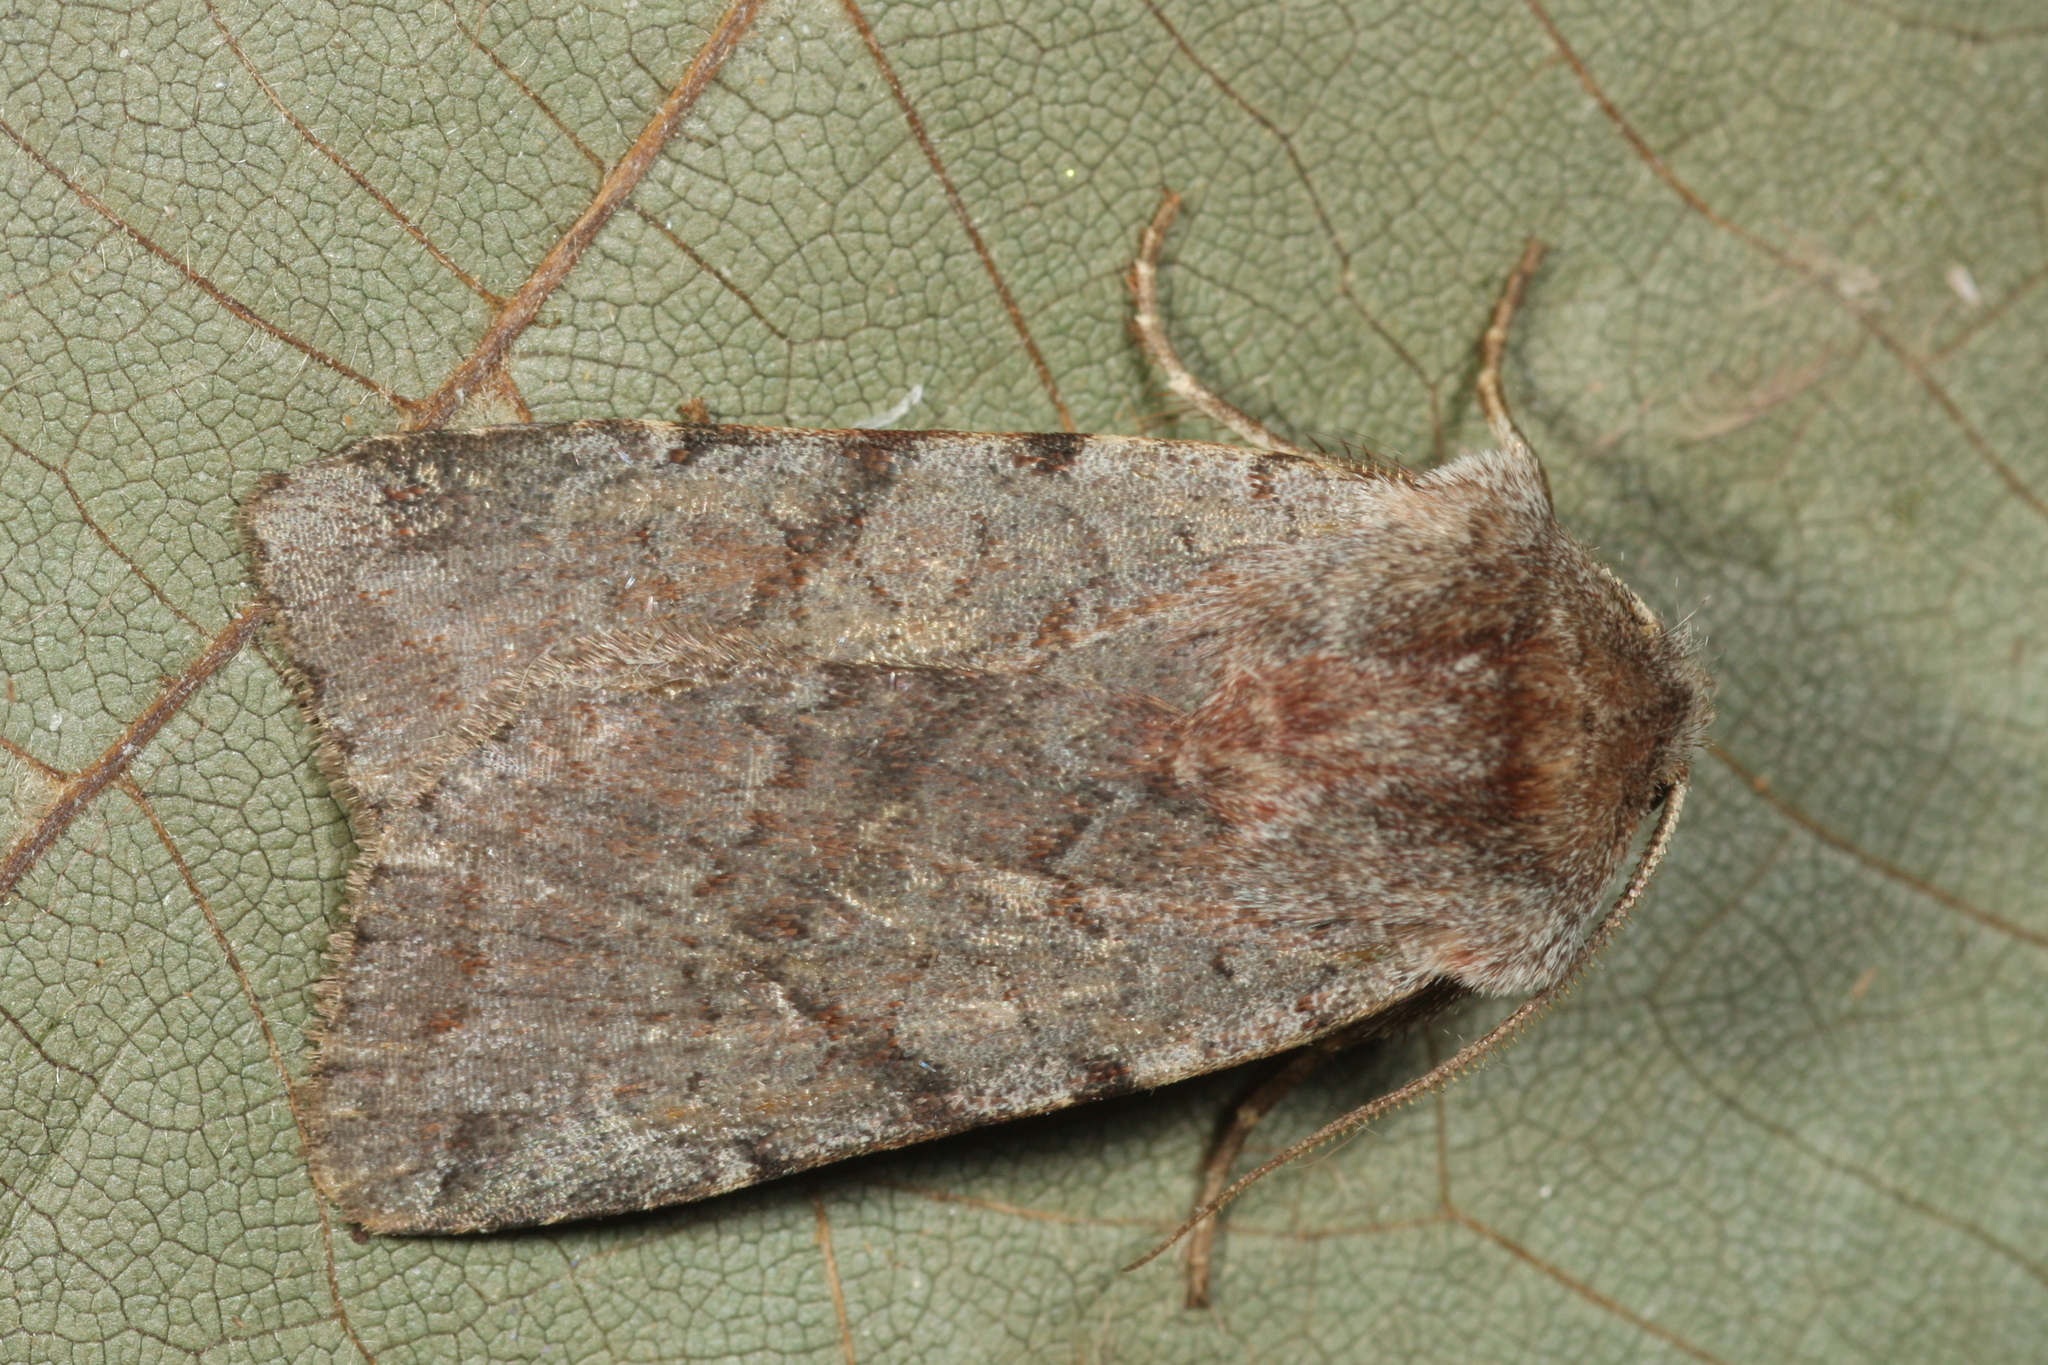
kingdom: Animalia
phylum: Arthropoda
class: Insecta
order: Lepidoptera
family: Noctuidae
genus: Cerastis
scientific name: Cerastis rubricosa
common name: Red chestnut
